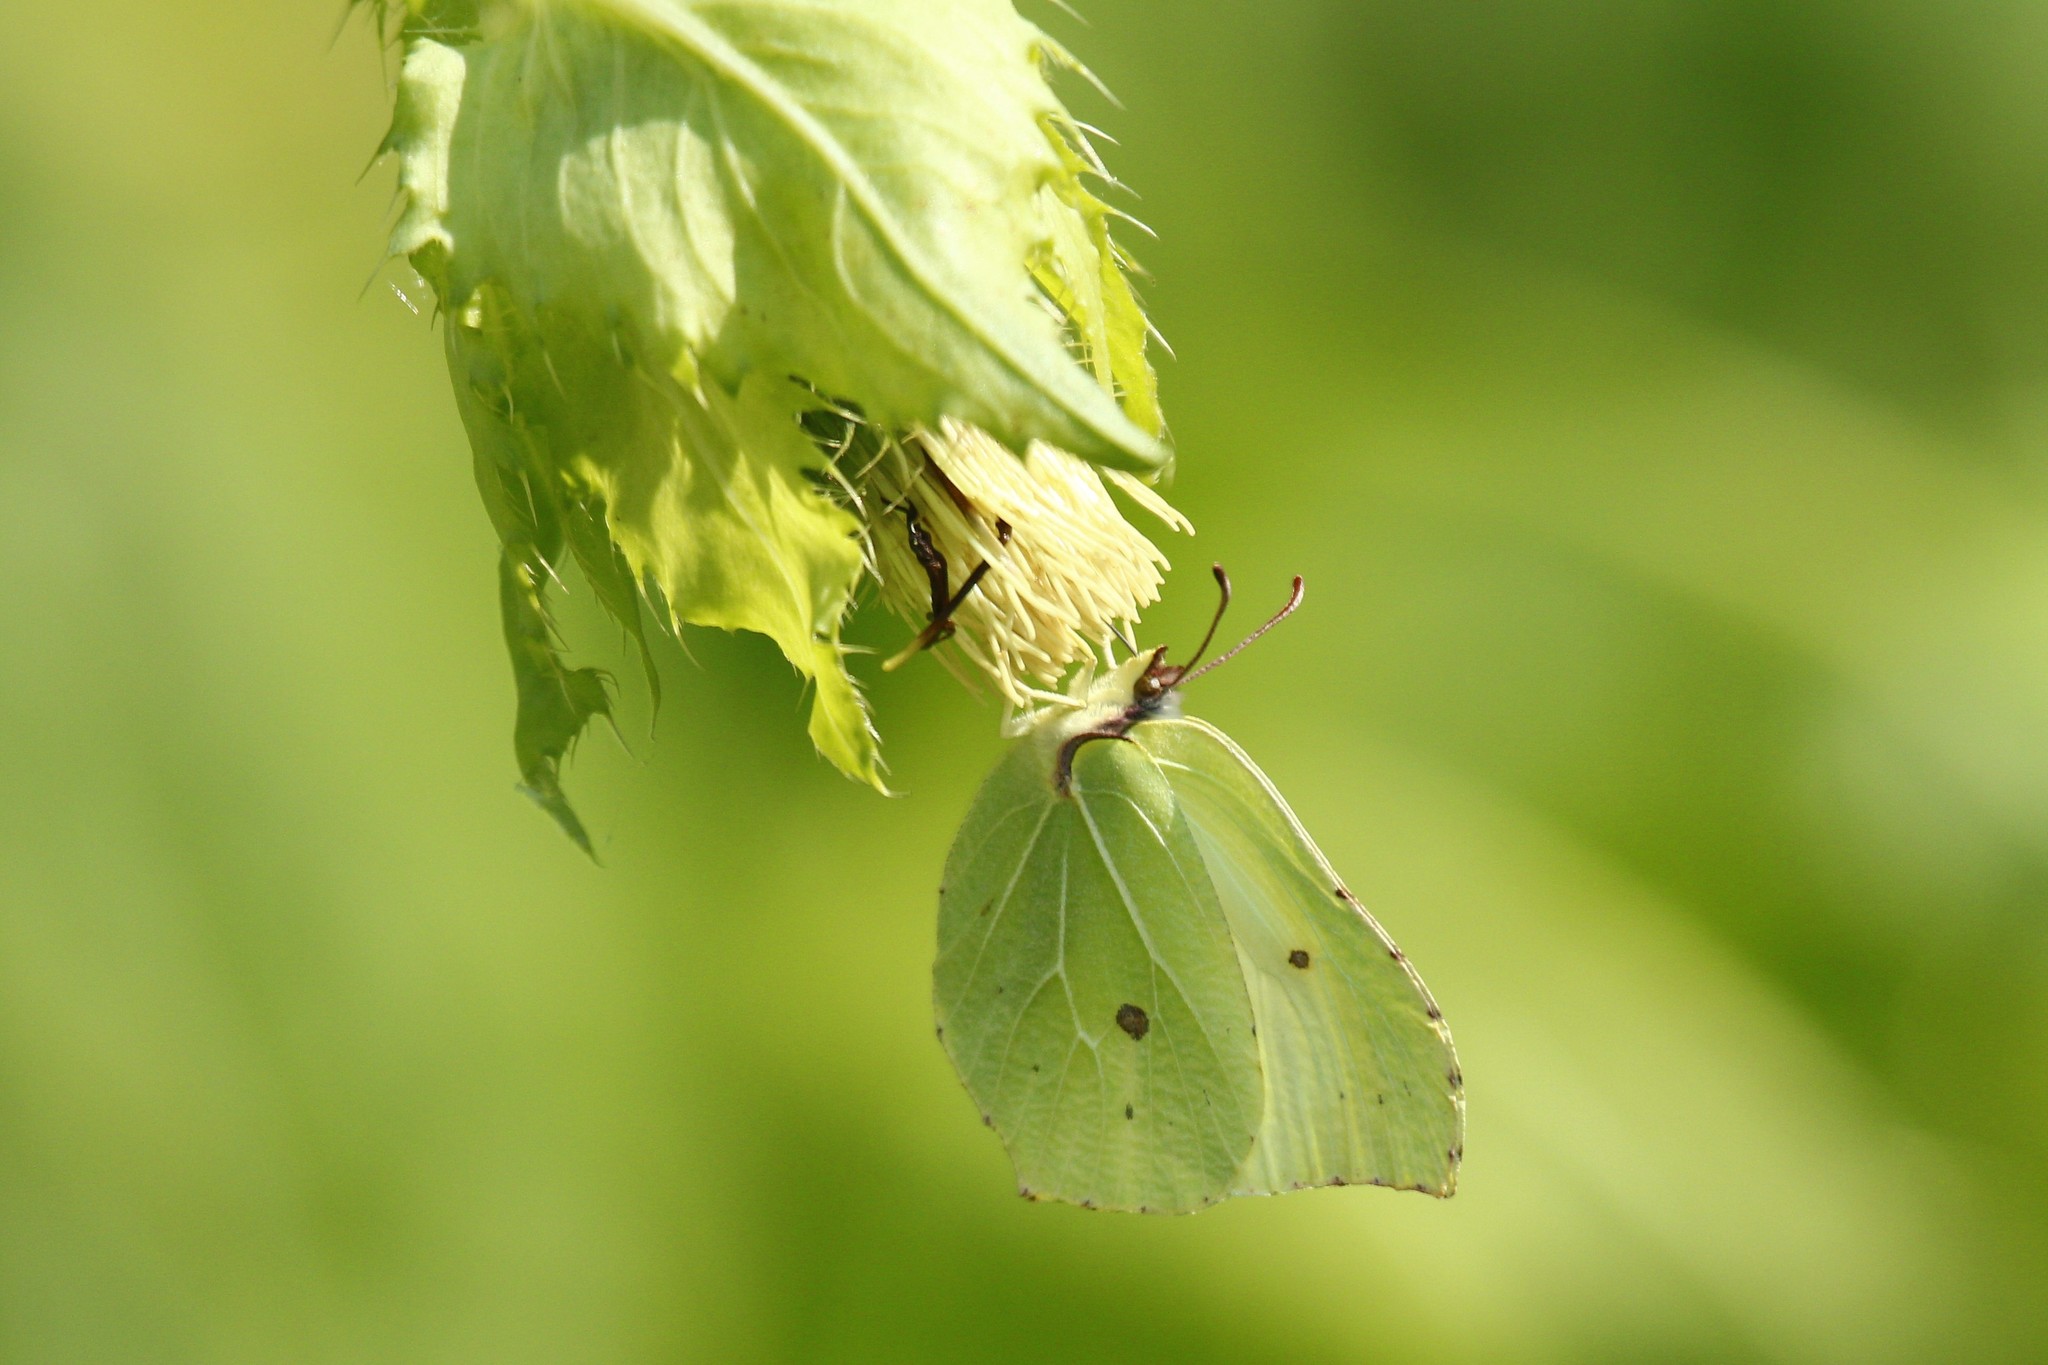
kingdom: Animalia
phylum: Arthropoda
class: Insecta
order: Lepidoptera
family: Pieridae
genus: Gonepteryx
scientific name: Gonepteryx rhamni
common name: Brimstone
